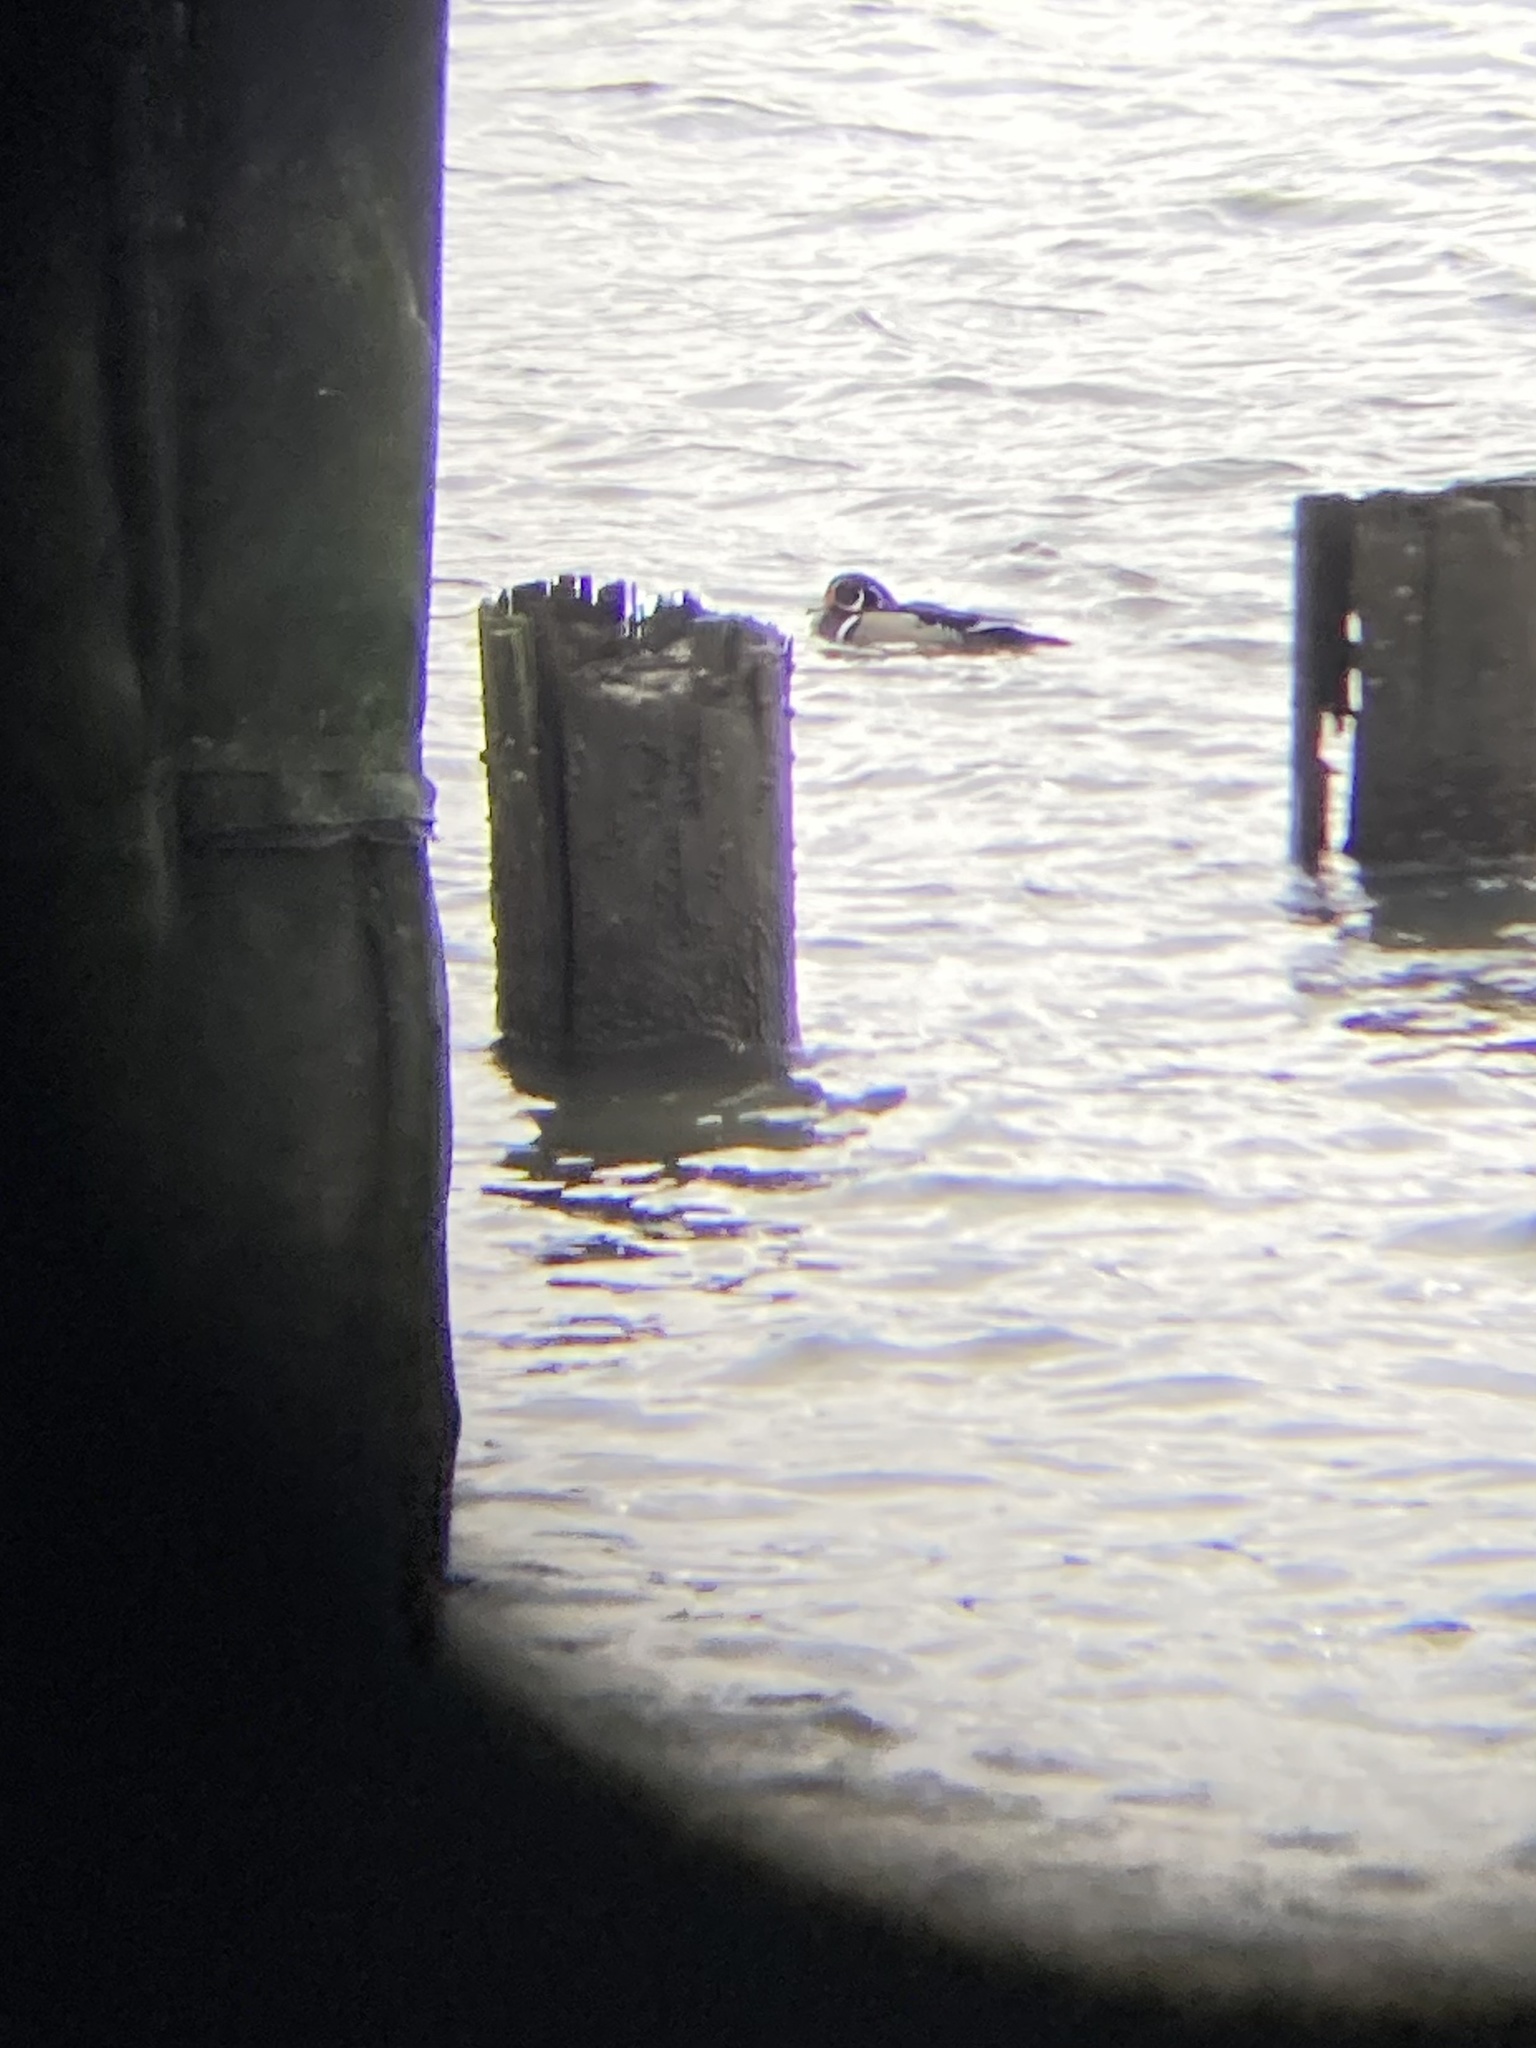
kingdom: Animalia
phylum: Chordata
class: Aves
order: Anseriformes
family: Anatidae
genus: Aix
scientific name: Aix sponsa
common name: Wood duck
